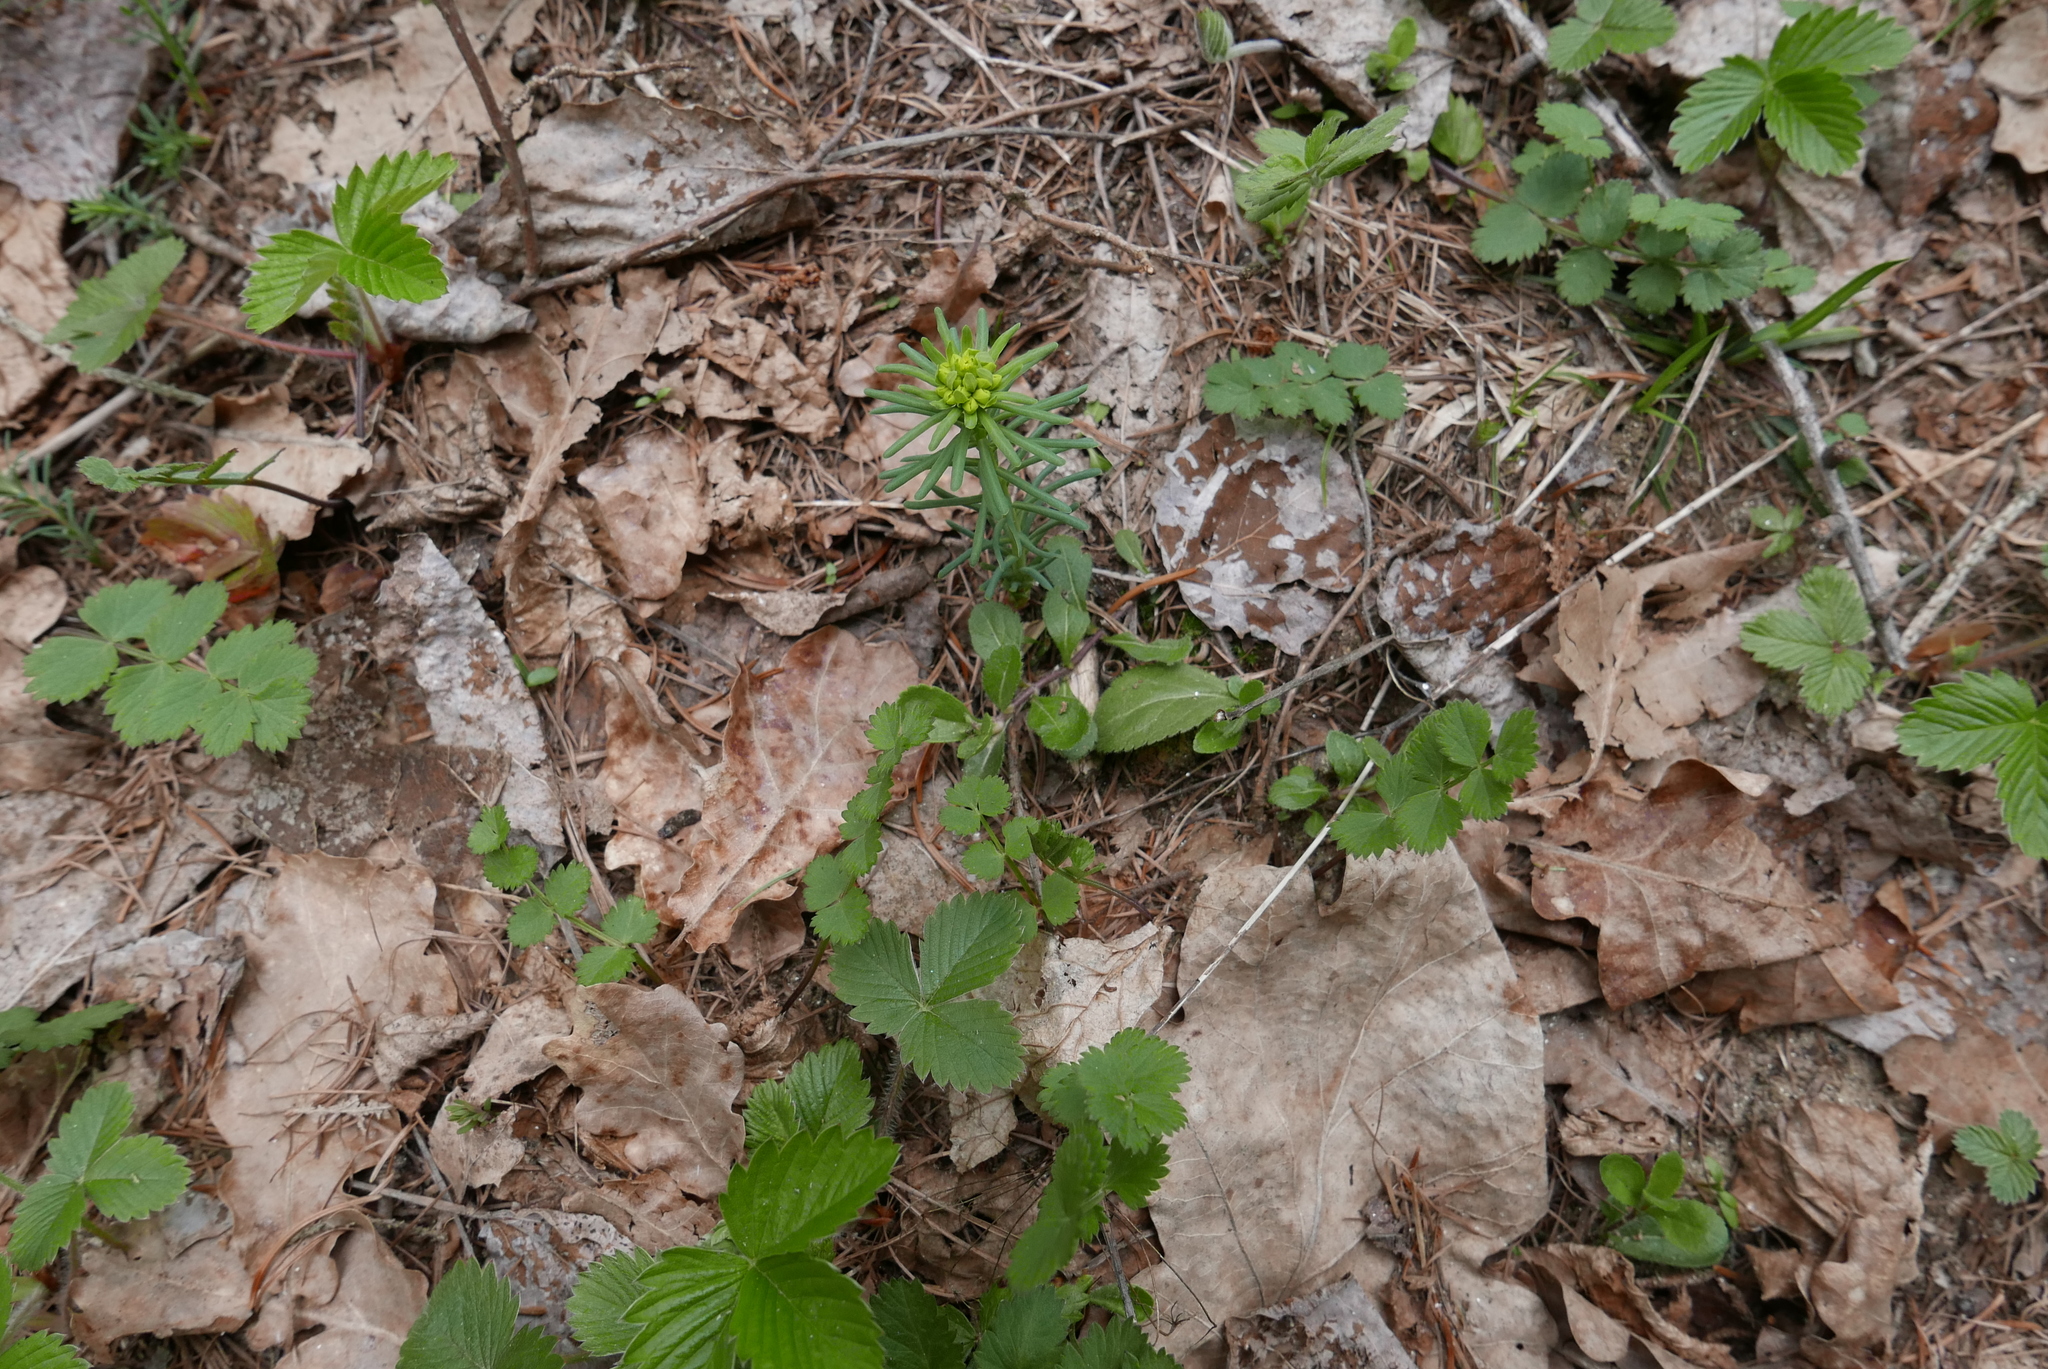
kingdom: Plantae
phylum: Tracheophyta
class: Magnoliopsida
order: Malpighiales
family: Euphorbiaceae
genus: Euphorbia
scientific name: Euphorbia cyparissias
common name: Cypress spurge
